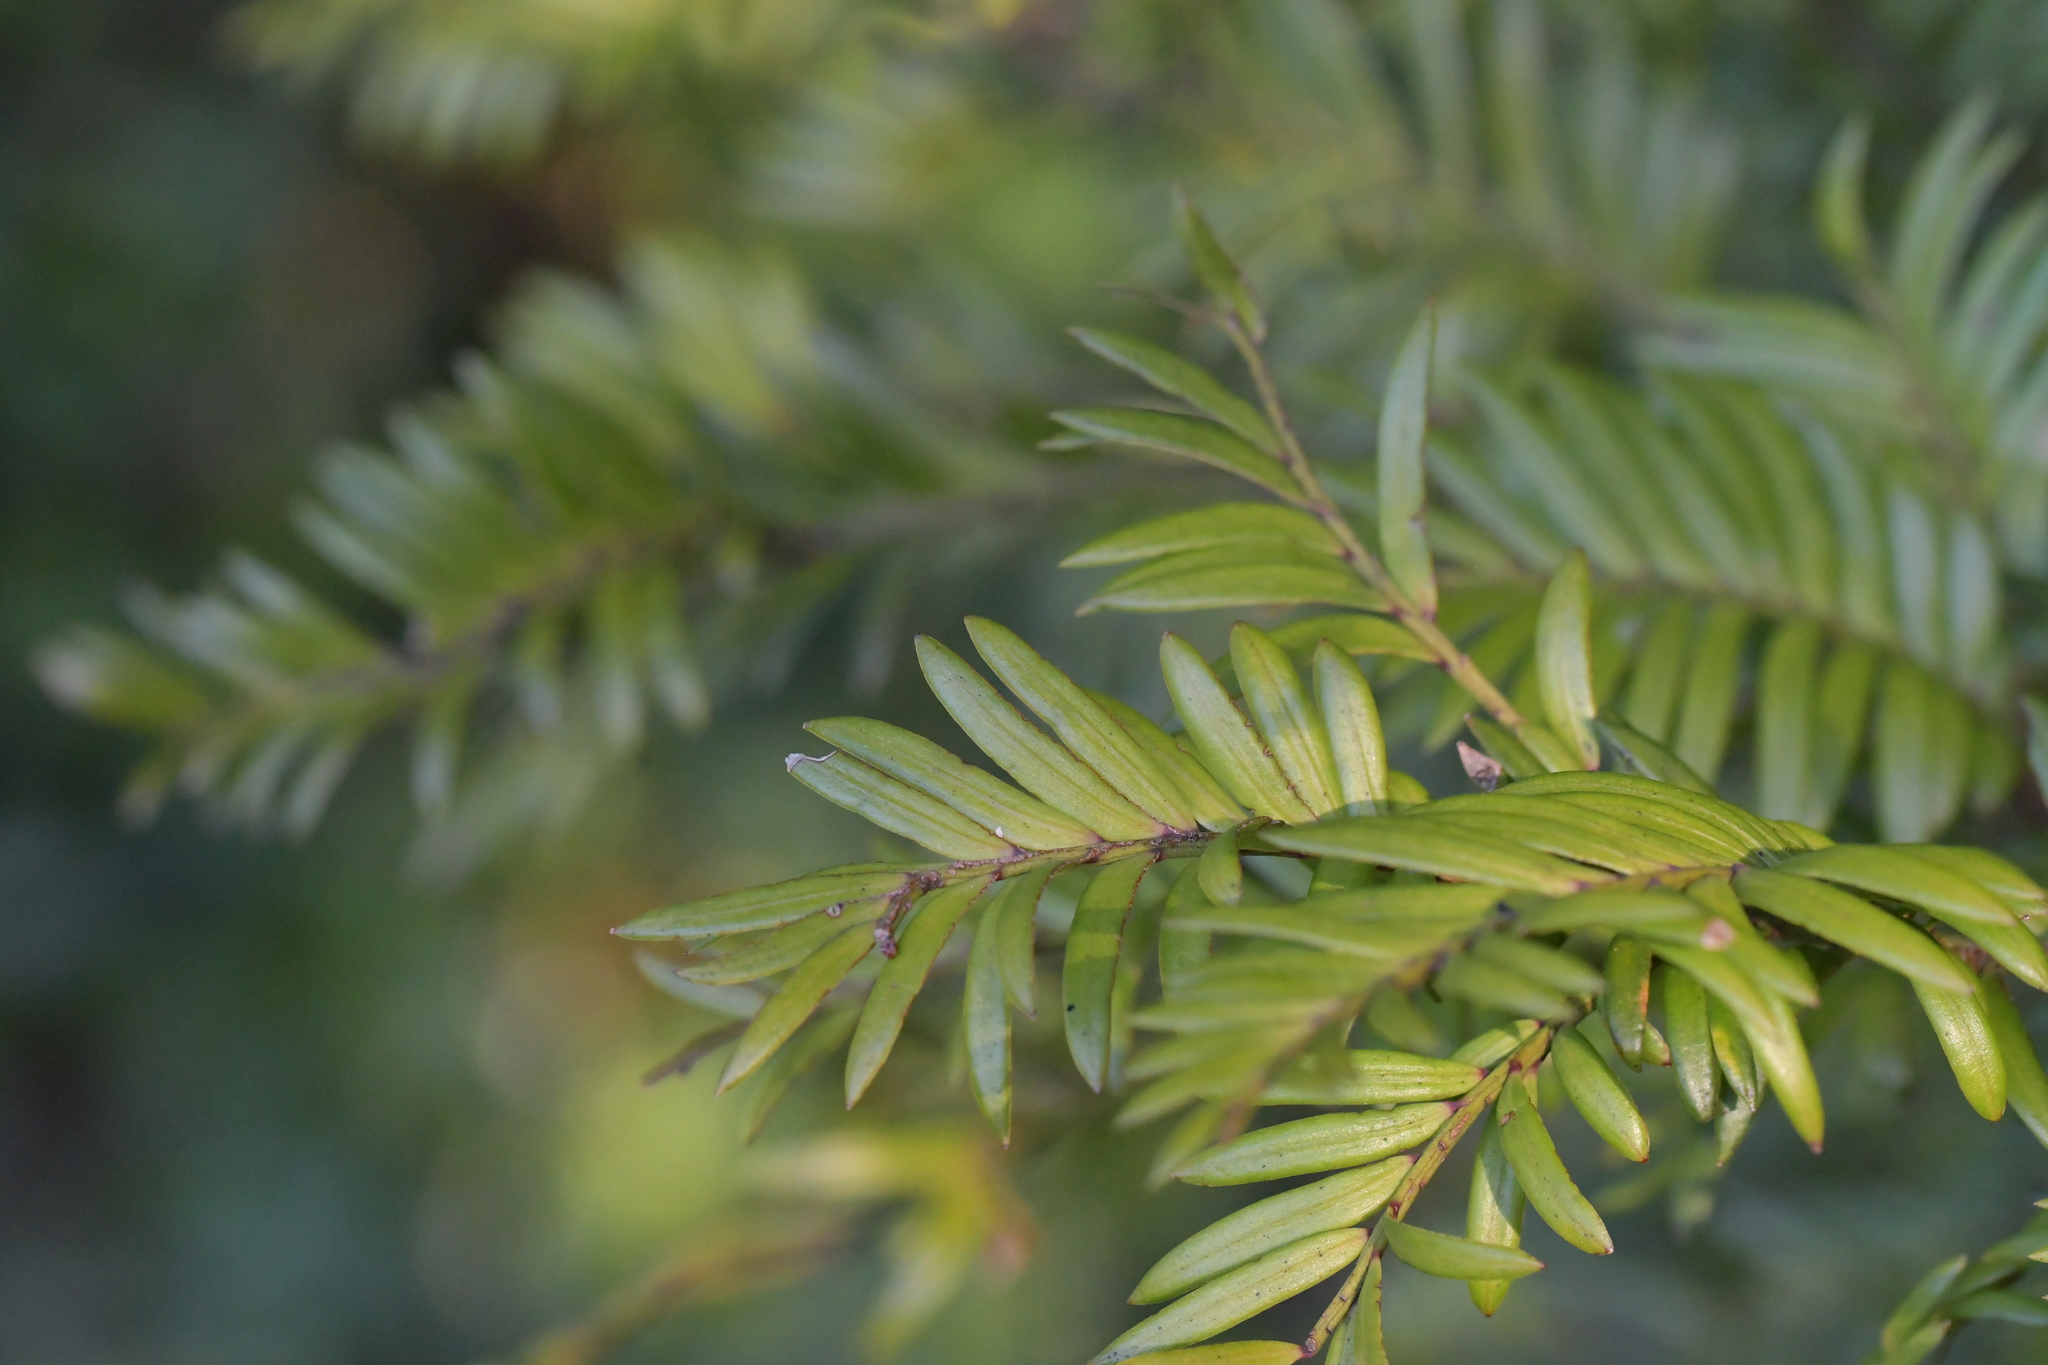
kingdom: Plantae
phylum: Tracheophyta
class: Pinopsida
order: Pinales
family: Podocarpaceae
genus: Prumnopitys
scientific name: Prumnopitys ferruginea
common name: Brown pine
